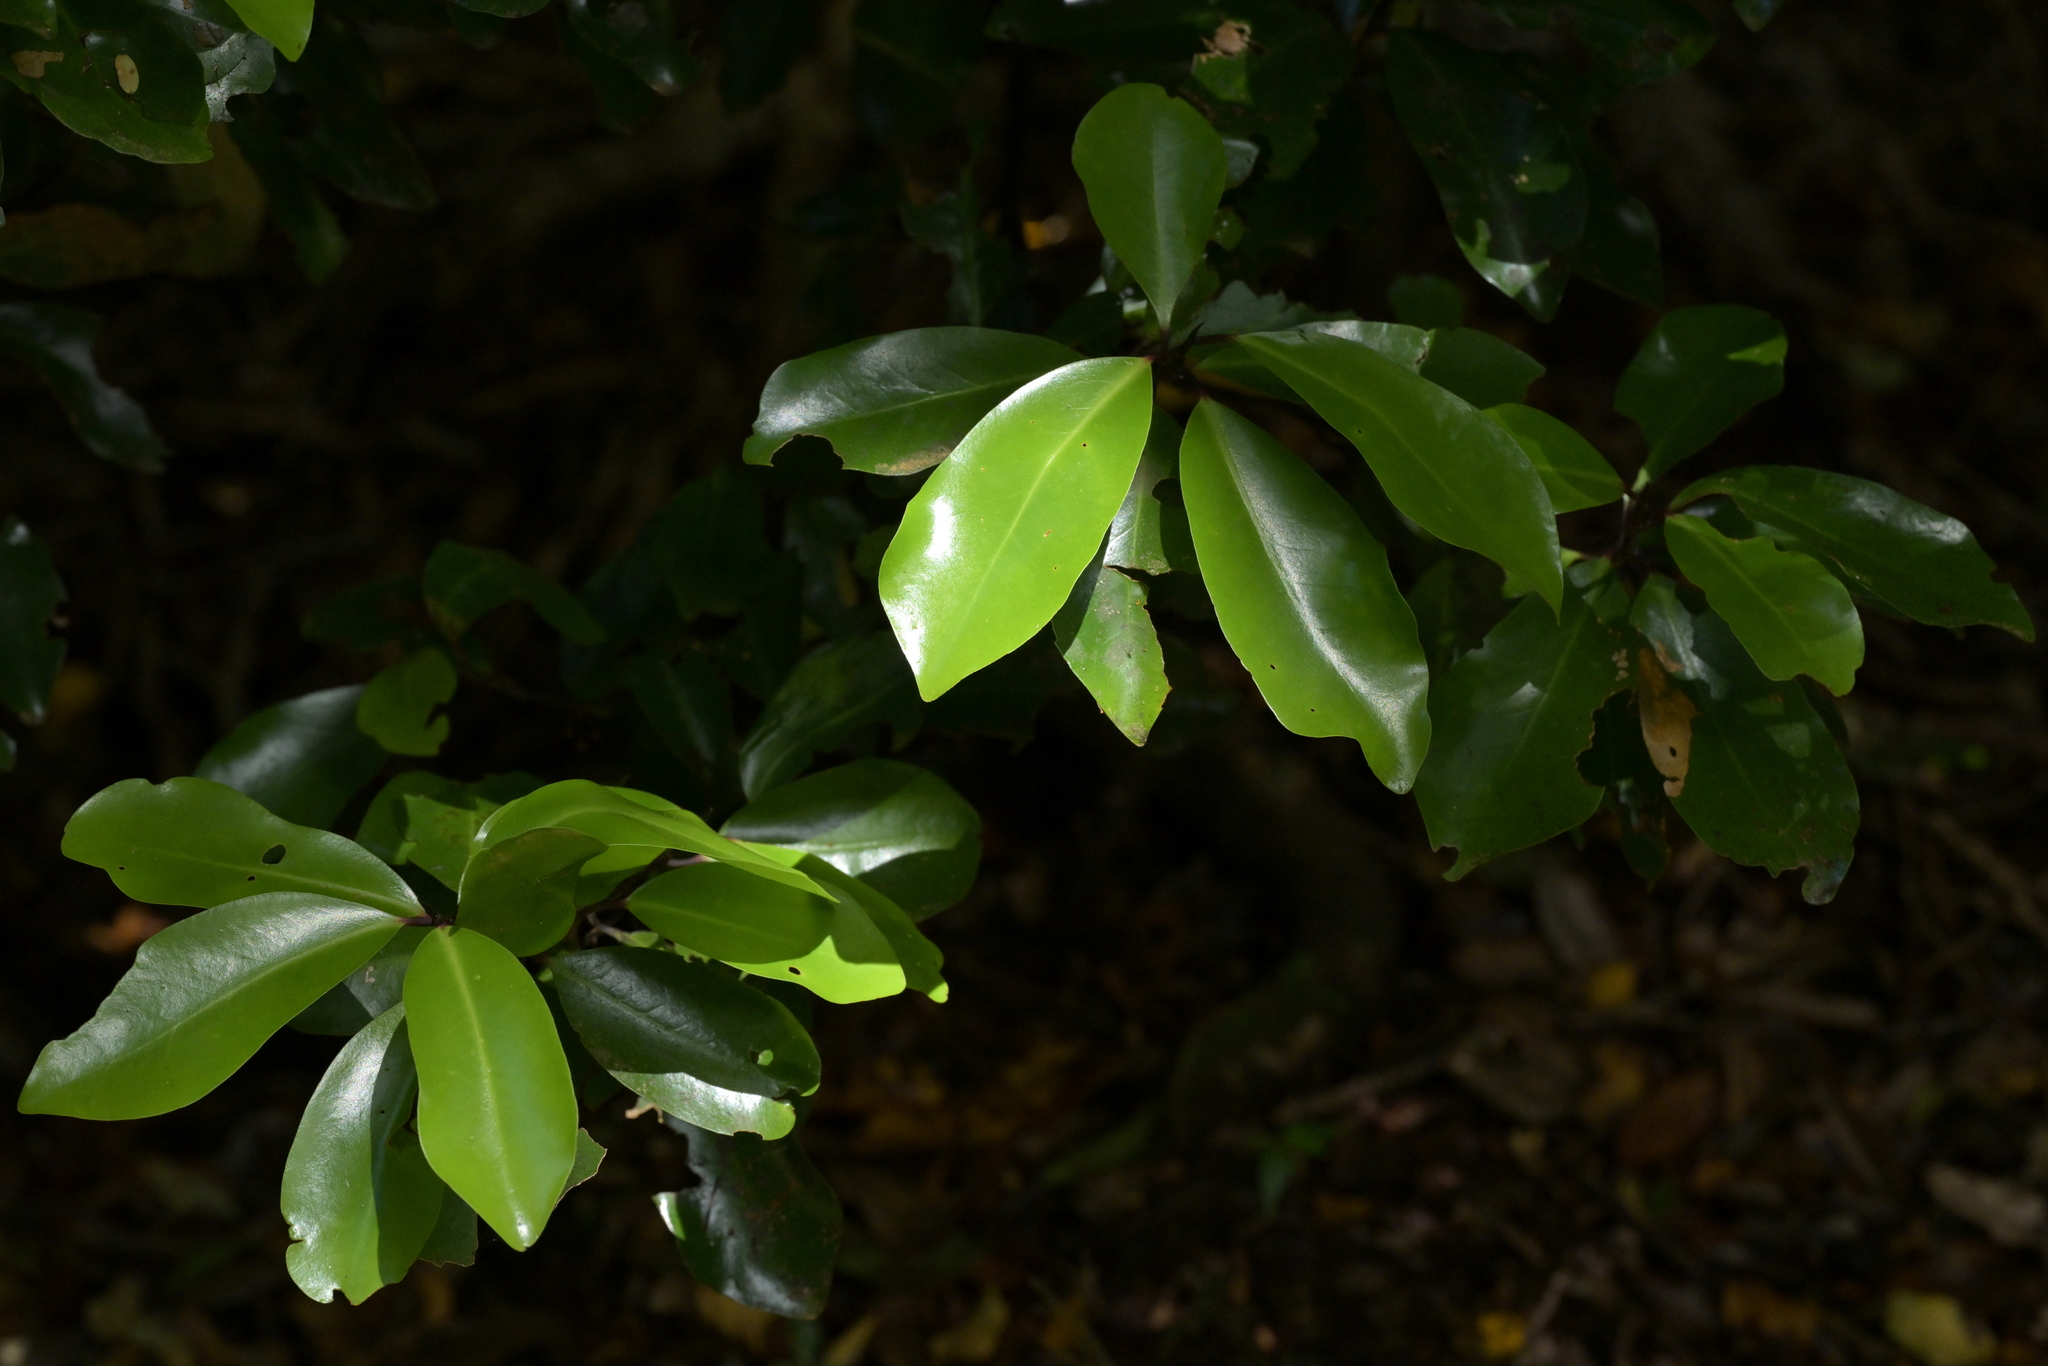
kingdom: Plantae
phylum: Tracheophyta
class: Magnoliopsida
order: Canellales
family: Winteraceae
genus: Pseudowintera
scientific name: Pseudowintera axillaris
